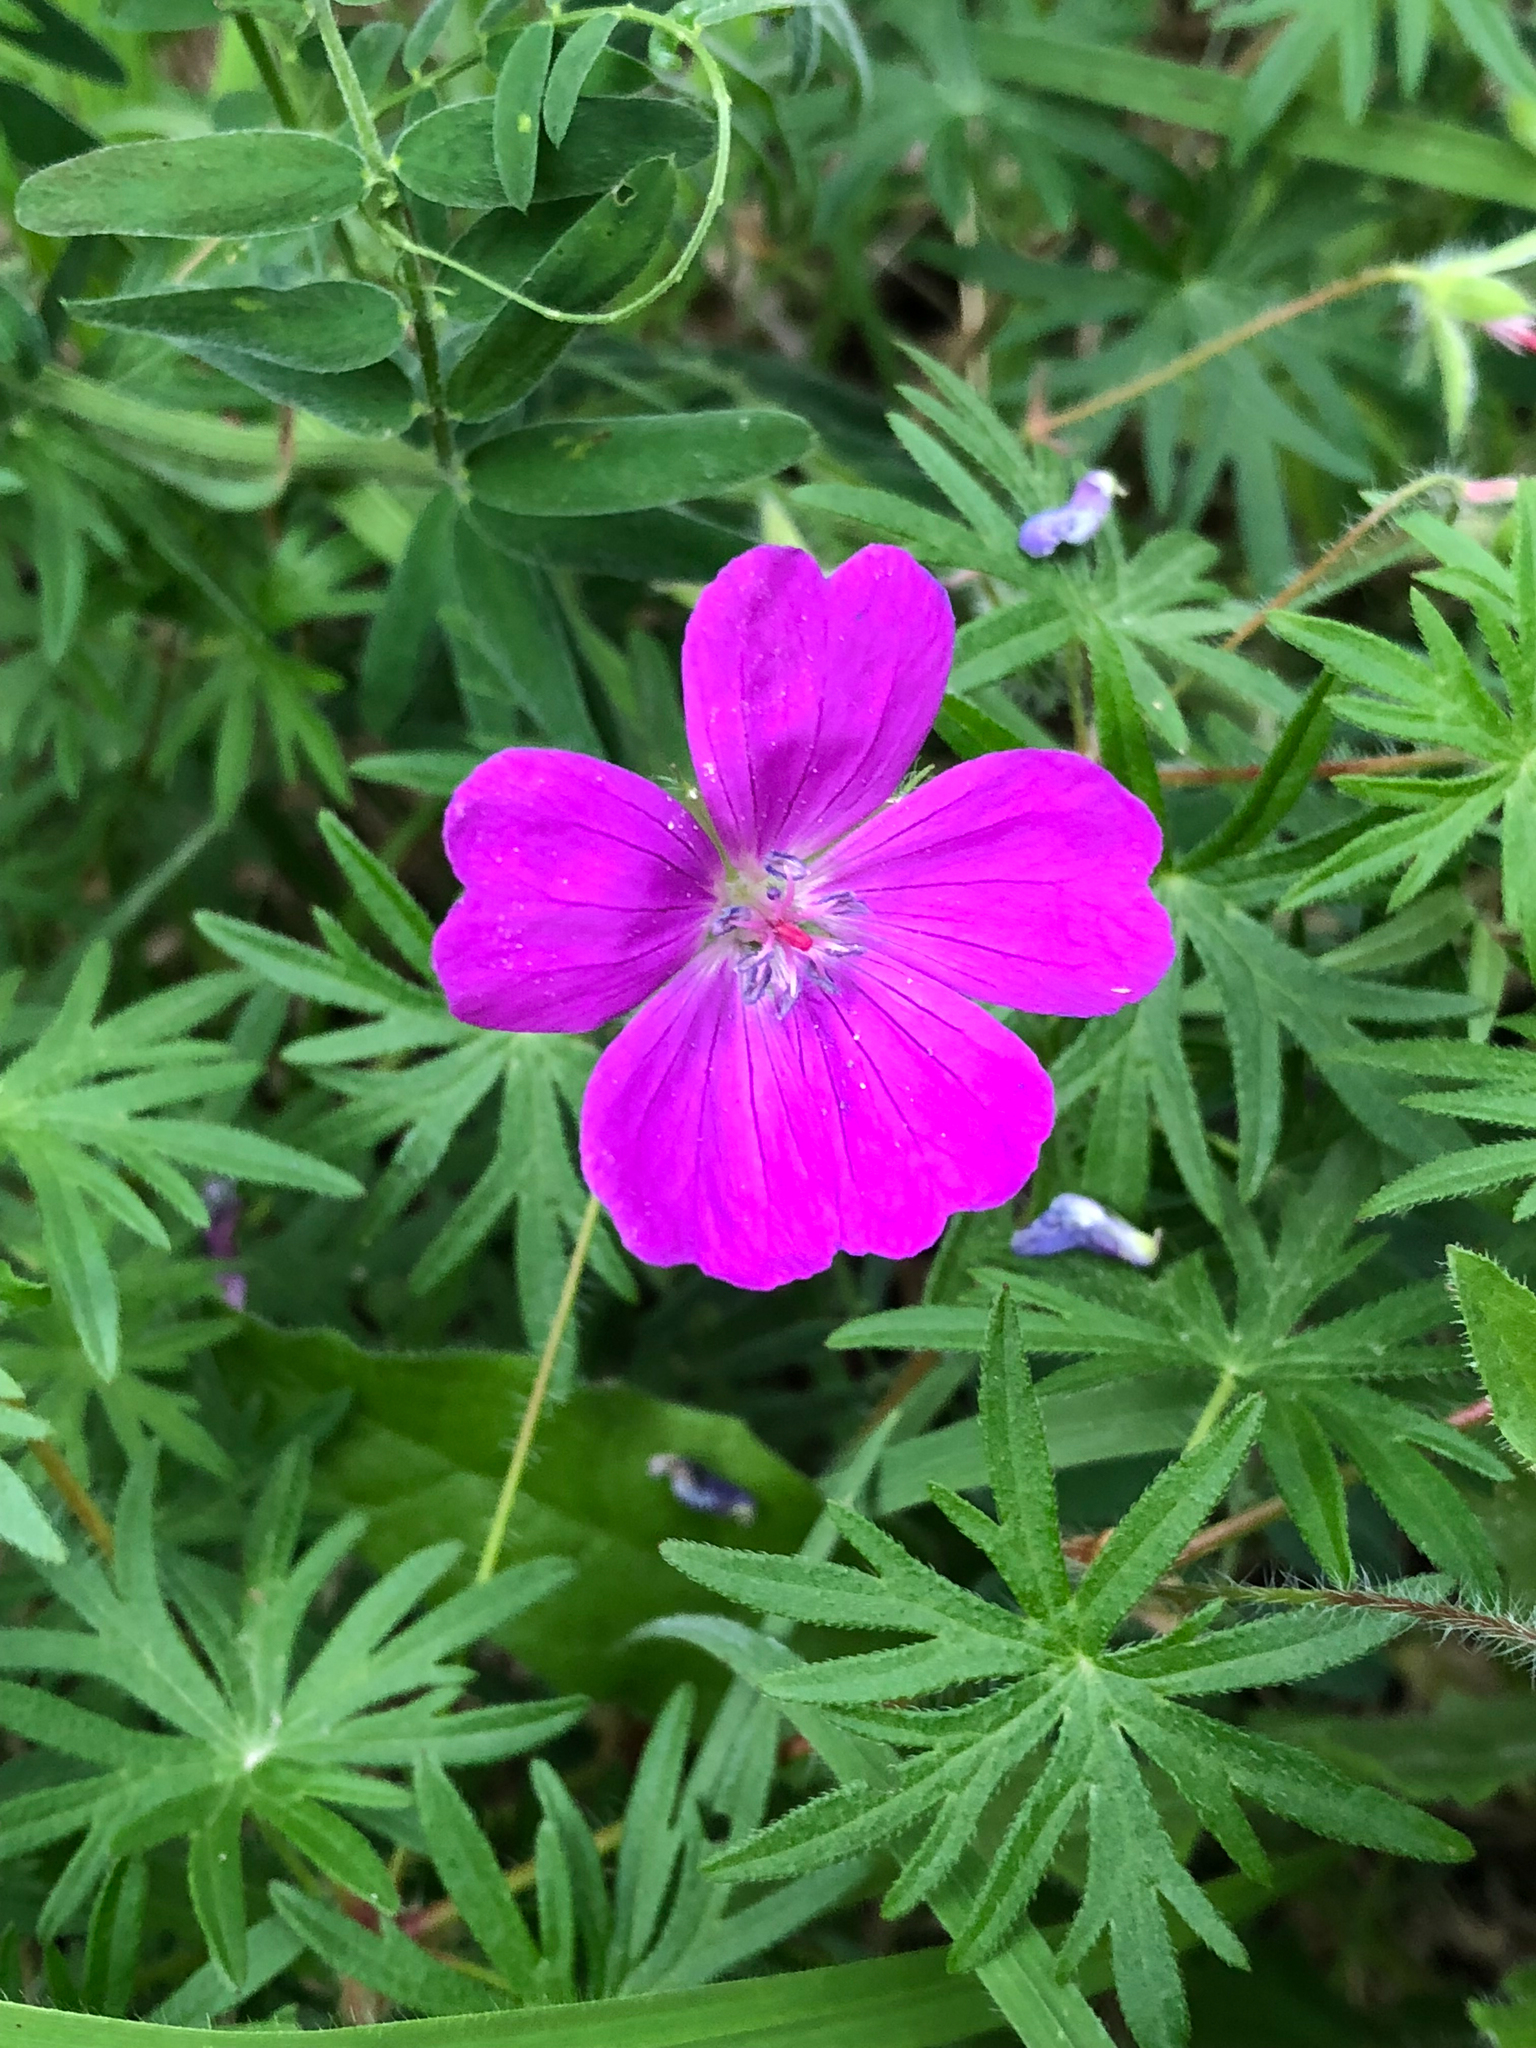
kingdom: Plantae
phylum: Tracheophyta
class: Magnoliopsida
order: Geraniales
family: Geraniaceae
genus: Geranium
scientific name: Geranium sanguineum
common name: Bloody crane's-bill
